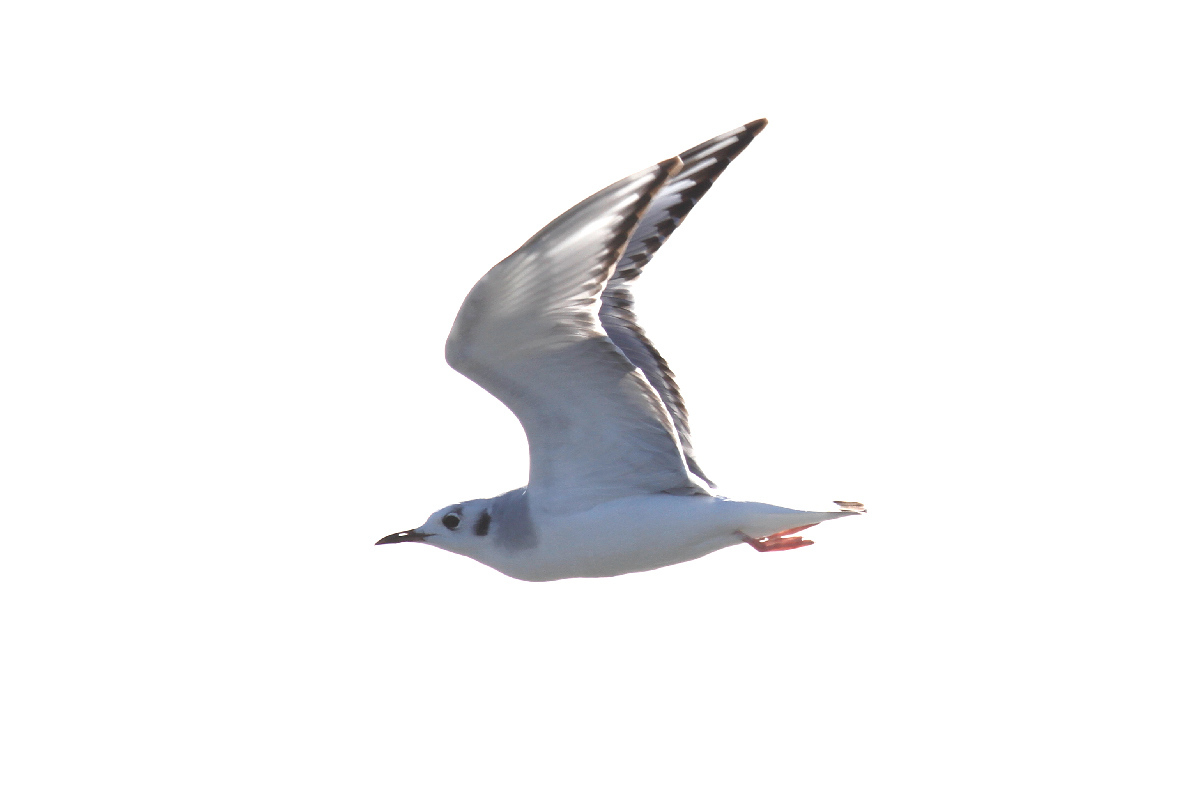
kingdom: Animalia
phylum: Chordata
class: Aves
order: Charadriiformes
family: Laridae
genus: Chroicocephalus
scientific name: Chroicocephalus philadelphia
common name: Bonaparte's gull
